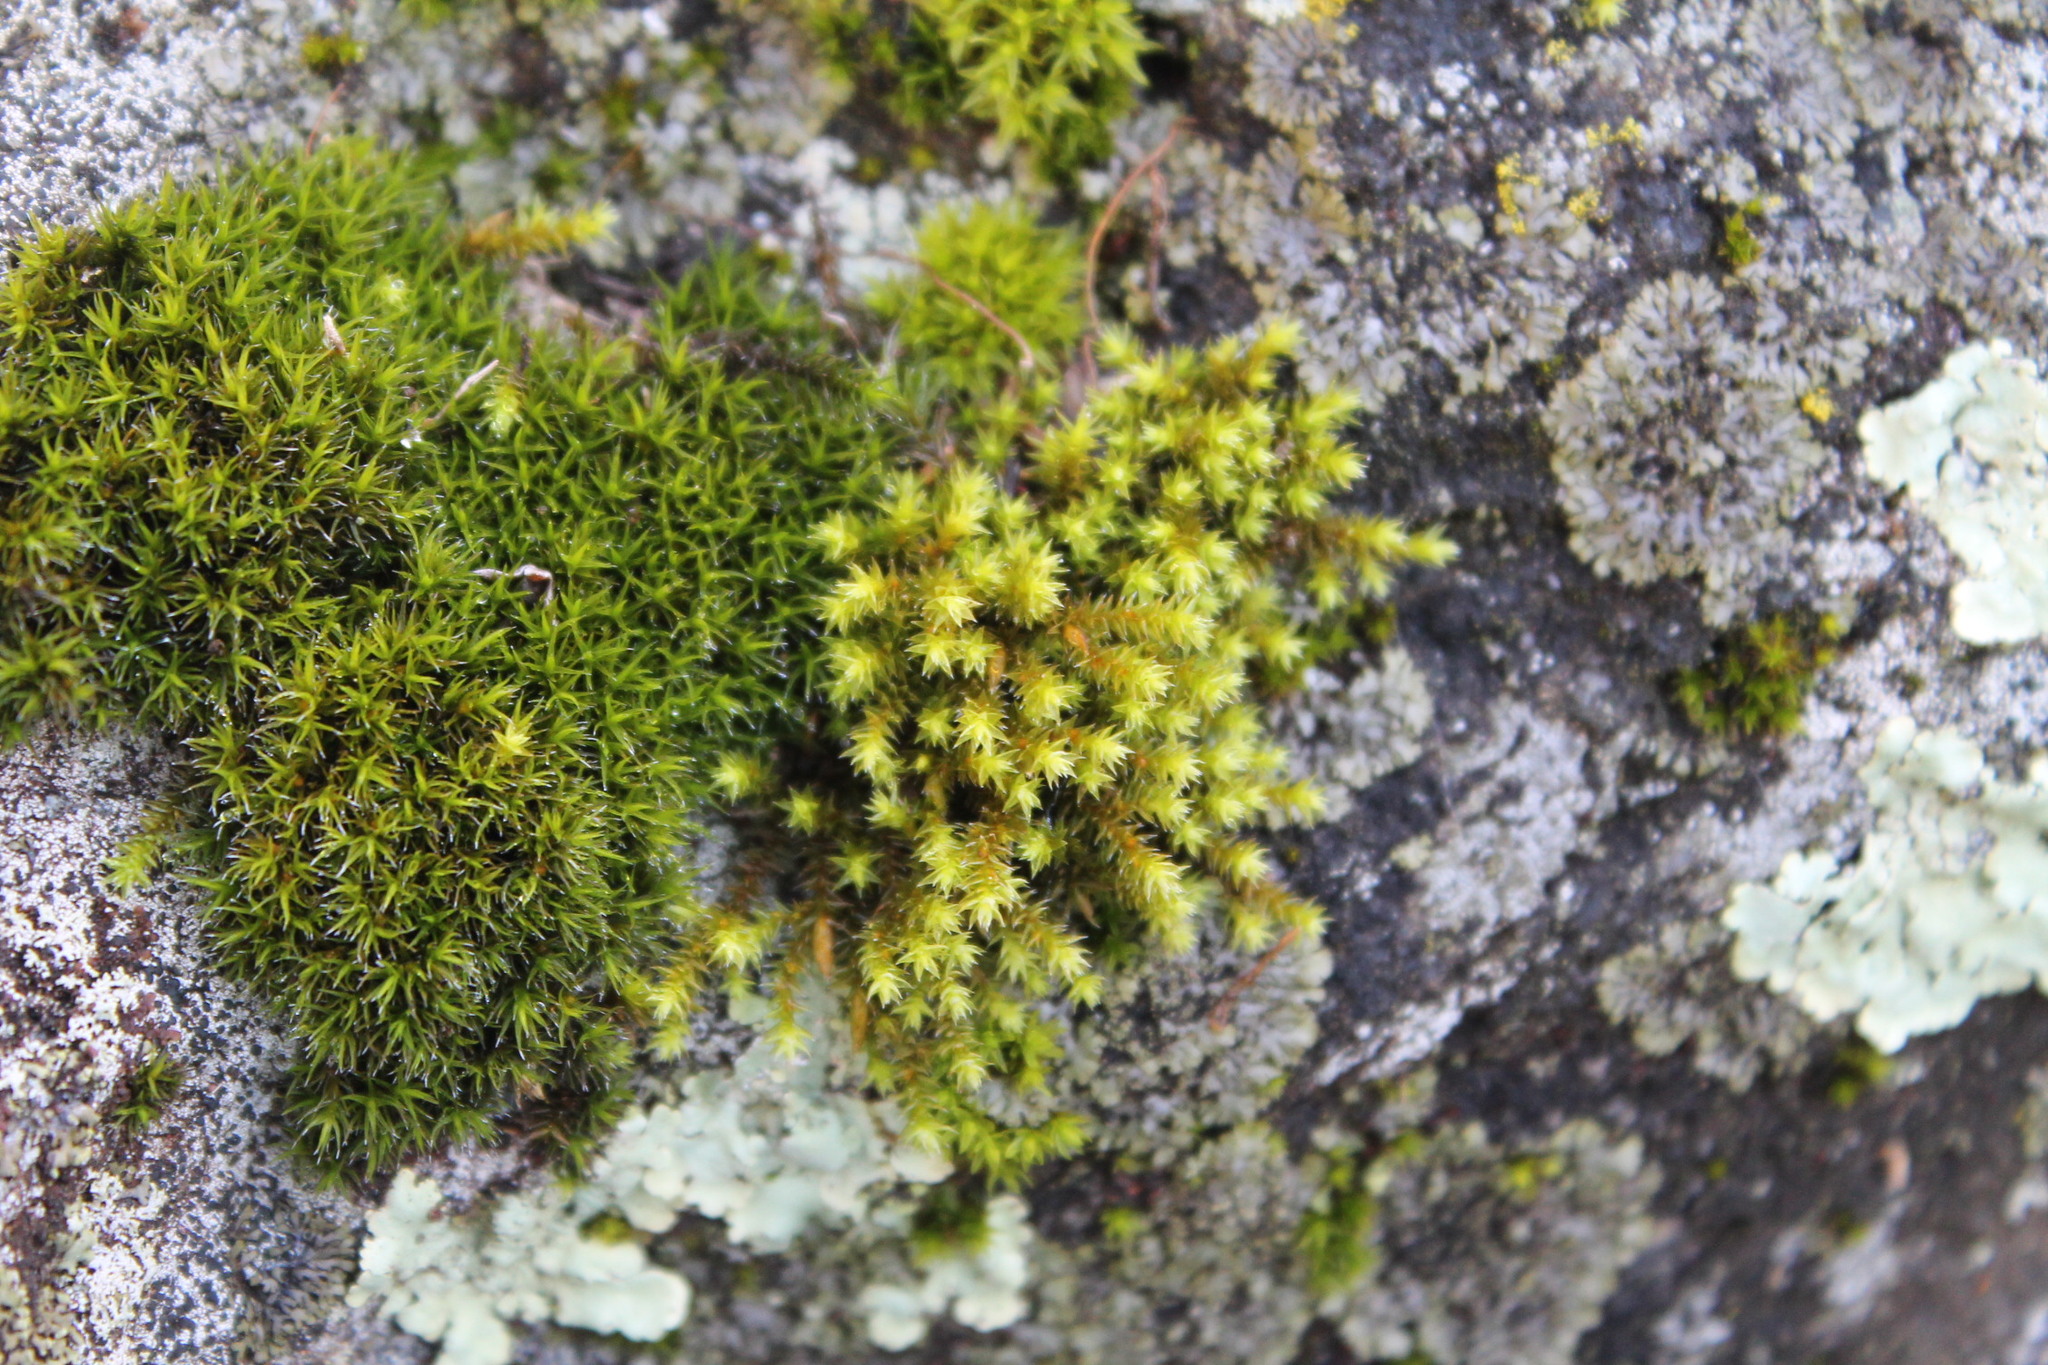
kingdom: Plantae
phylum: Bryophyta
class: Bryopsida
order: Hedwigiales
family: Hedwigiaceae
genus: Hedwigia
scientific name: Hedwigia ciliata
